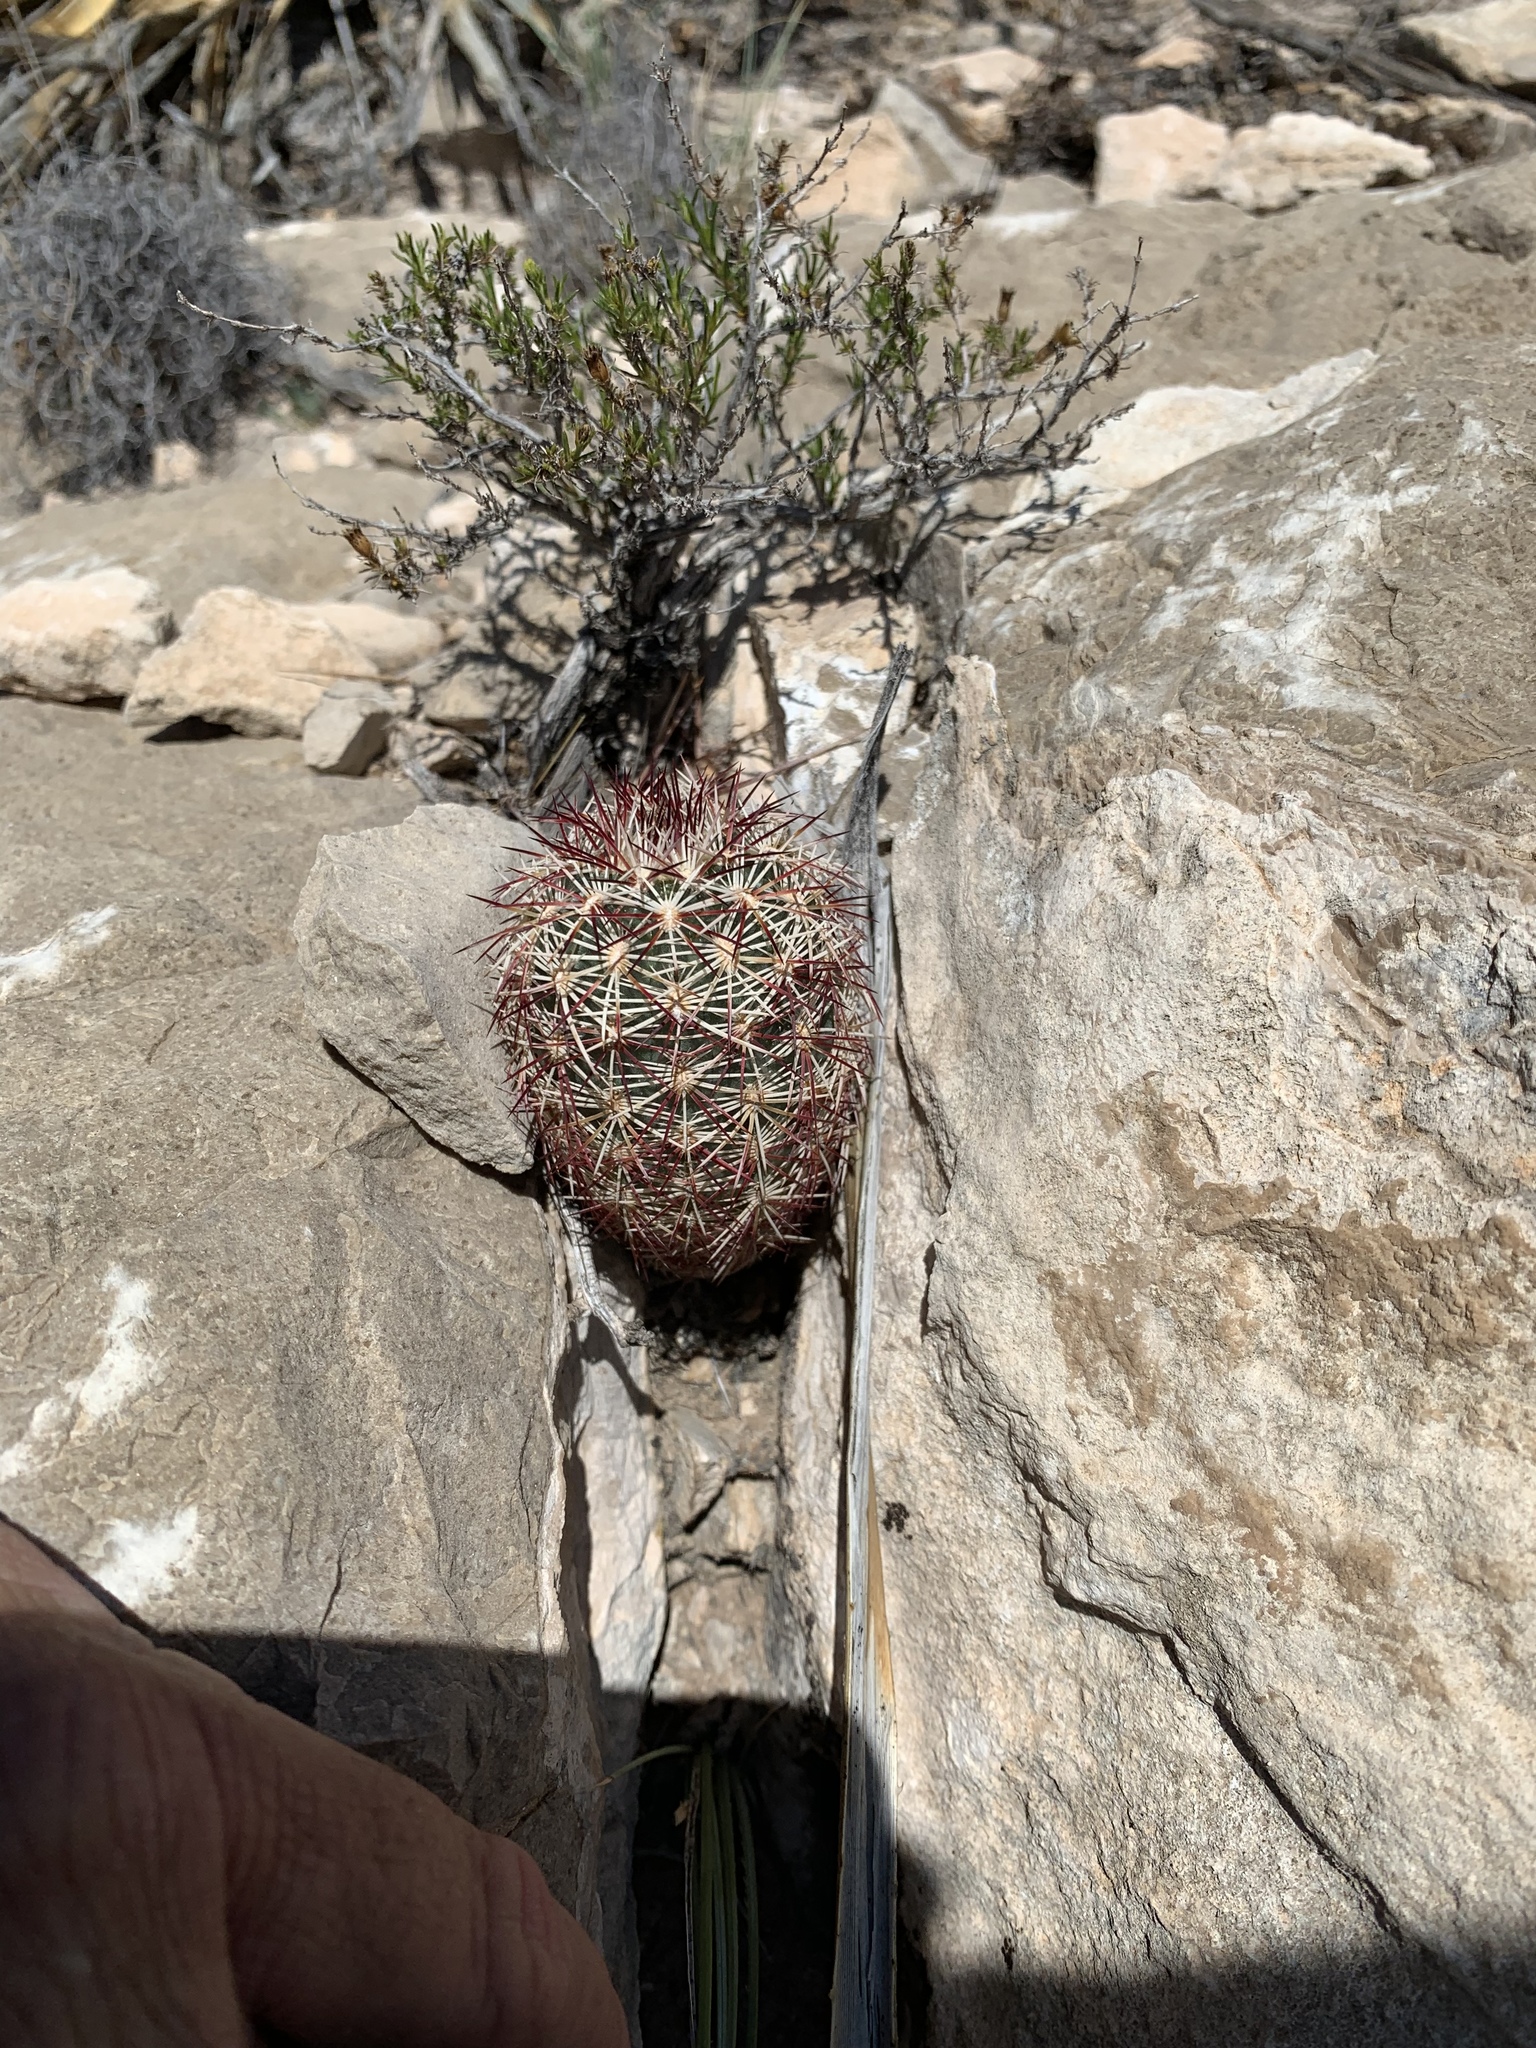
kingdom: Plantae
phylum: Tracheophyta
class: Magnoliopsida
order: Caryophyllales
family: Cactaceae
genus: Echinocereus
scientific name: Echinocereus viridiflorus
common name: Nylon hedgehog cactus
